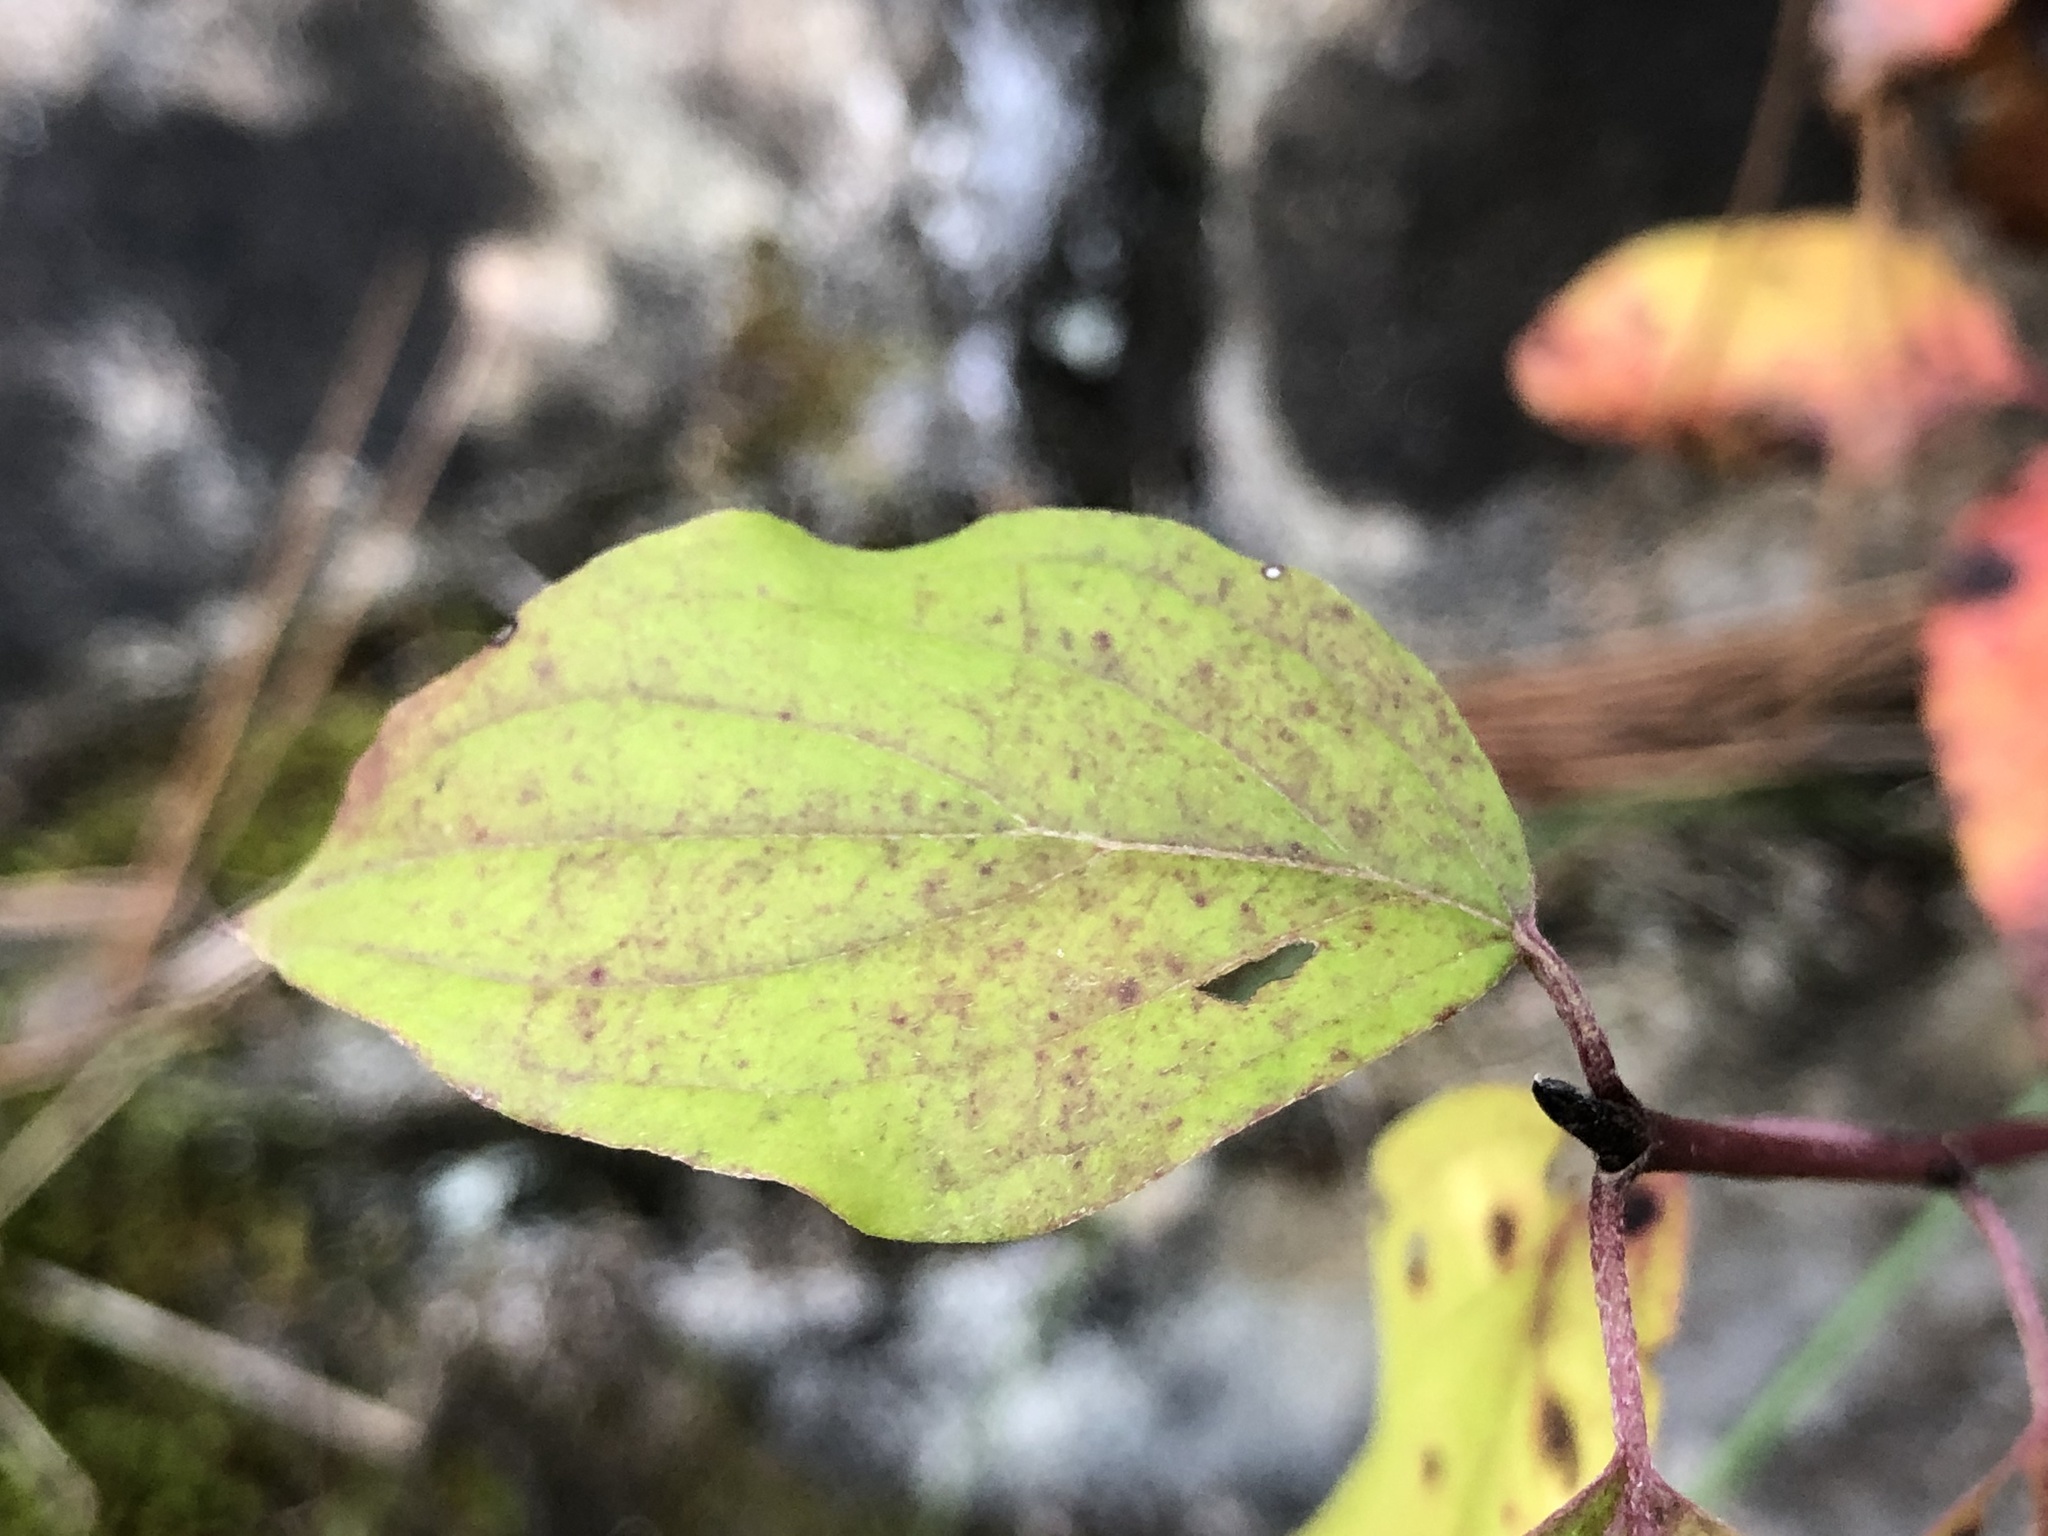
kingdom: Plantae
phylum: Tracheophyta
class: Magnoliopsida
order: Cornales
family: Cornaceae
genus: Cornus
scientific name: Cornus sanguinea
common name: Dogwood
